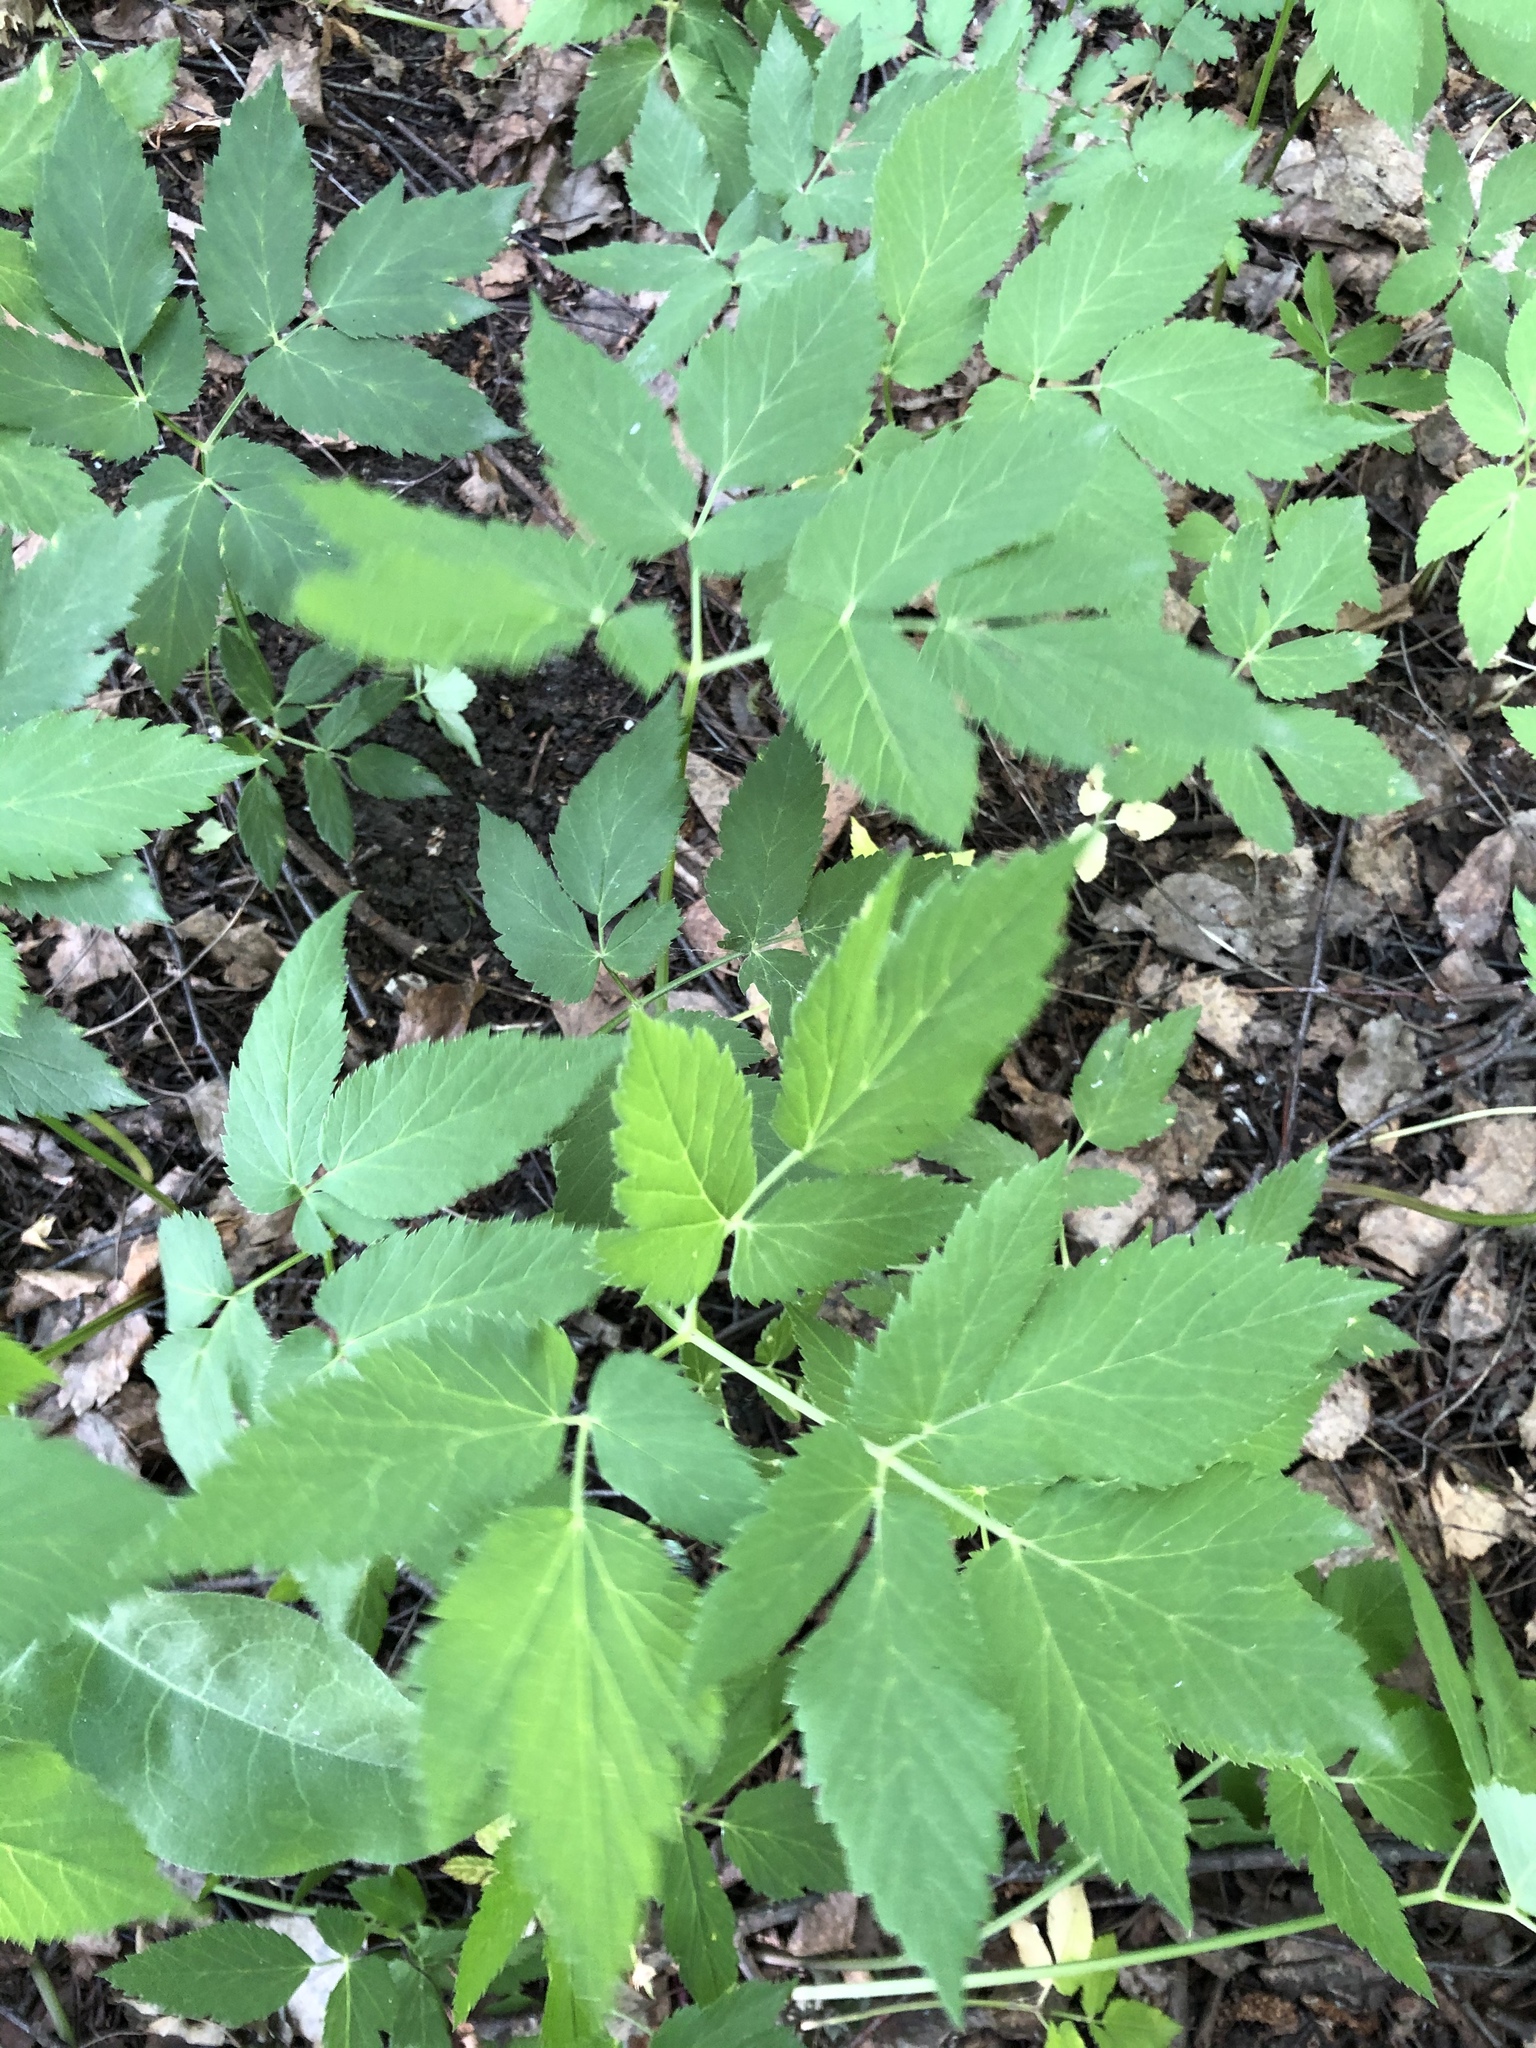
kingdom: Plantae
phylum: Tracheophyta
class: Magnoliopsida
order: Apiales
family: Apiaceae
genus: Aegopodium
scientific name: Aegopodium podagraria
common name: Ground-elder
